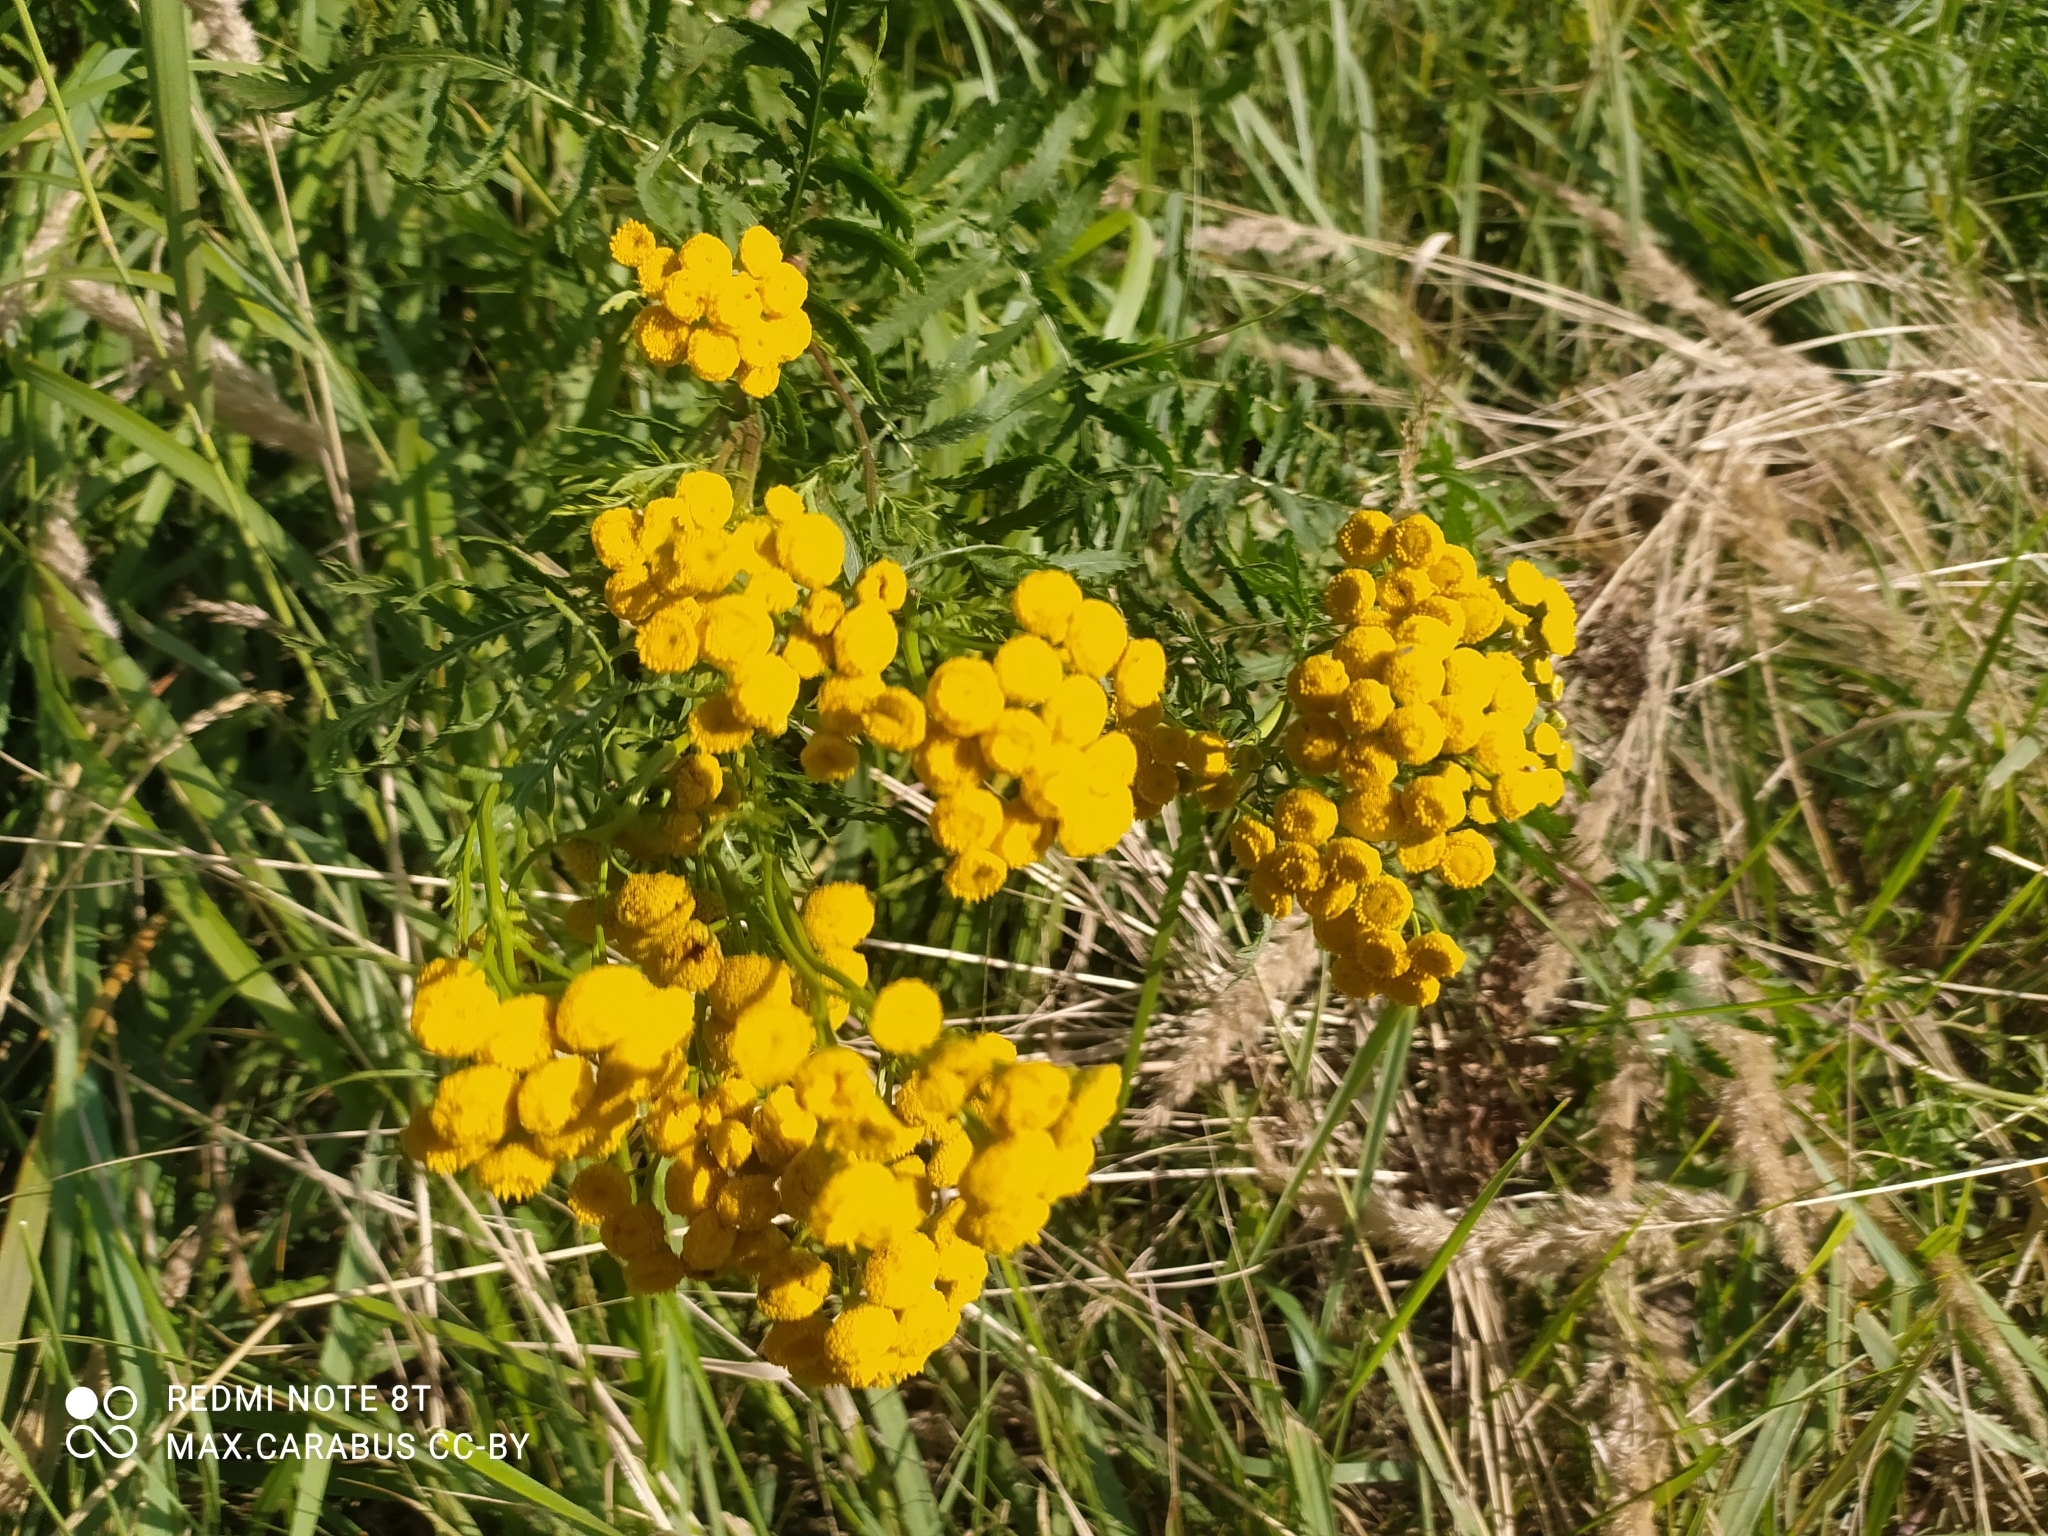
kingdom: Plantae
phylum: Tracheophyta
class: Magnoliopsida
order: Asterales
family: Asteraceae
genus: Tanacetum
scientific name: Tanacetum vulgare
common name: Common tansy
